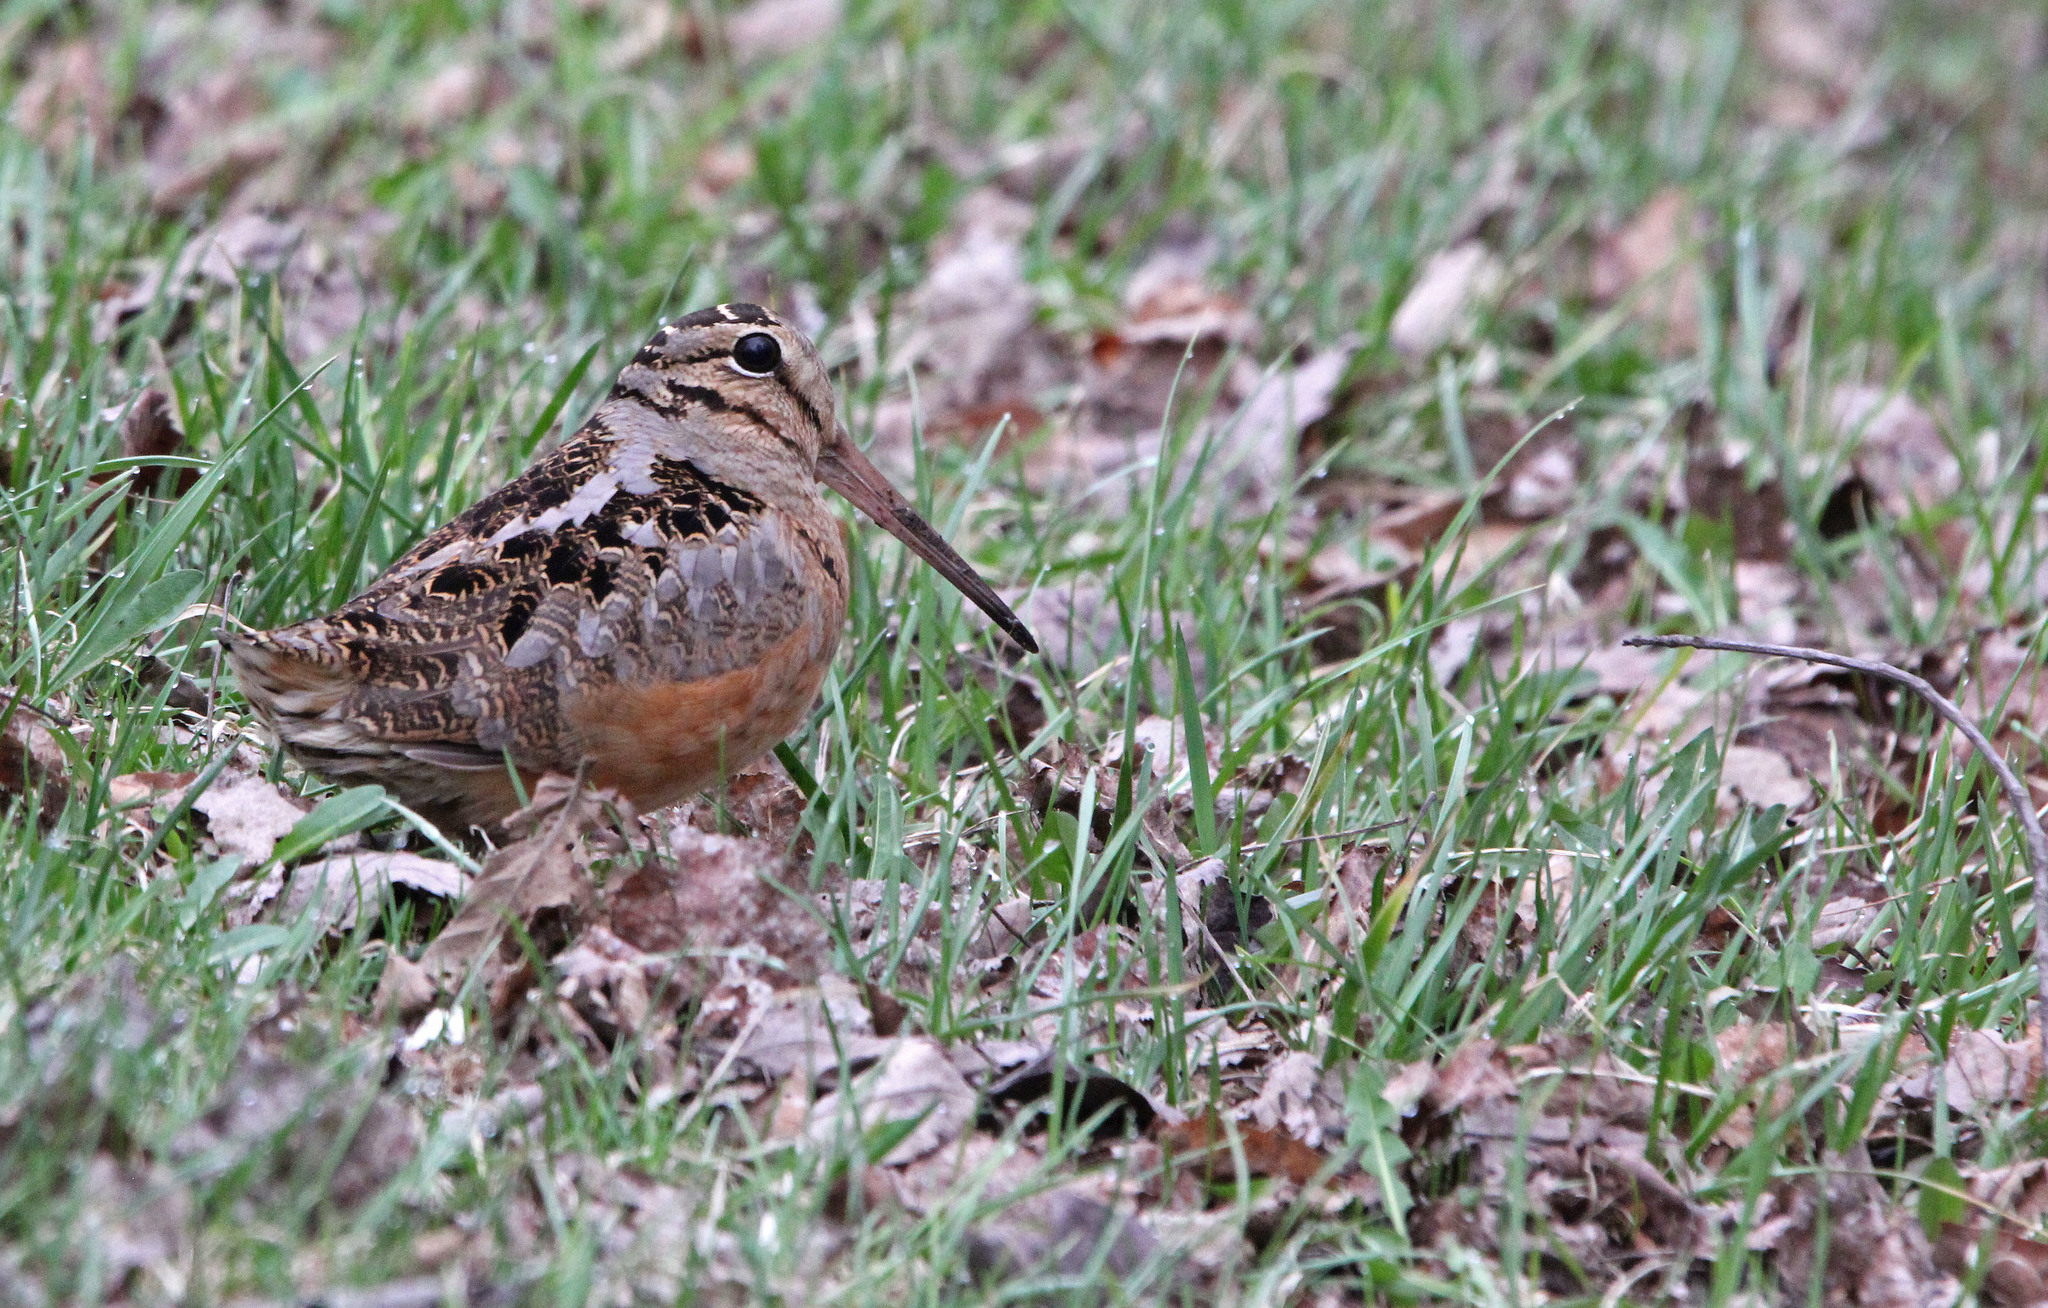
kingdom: Animalia
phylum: Chordata
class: Aves
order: Charadriiformes
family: Scolopacidae
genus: Scolopax
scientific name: Scolopax minor
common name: American woodcock
